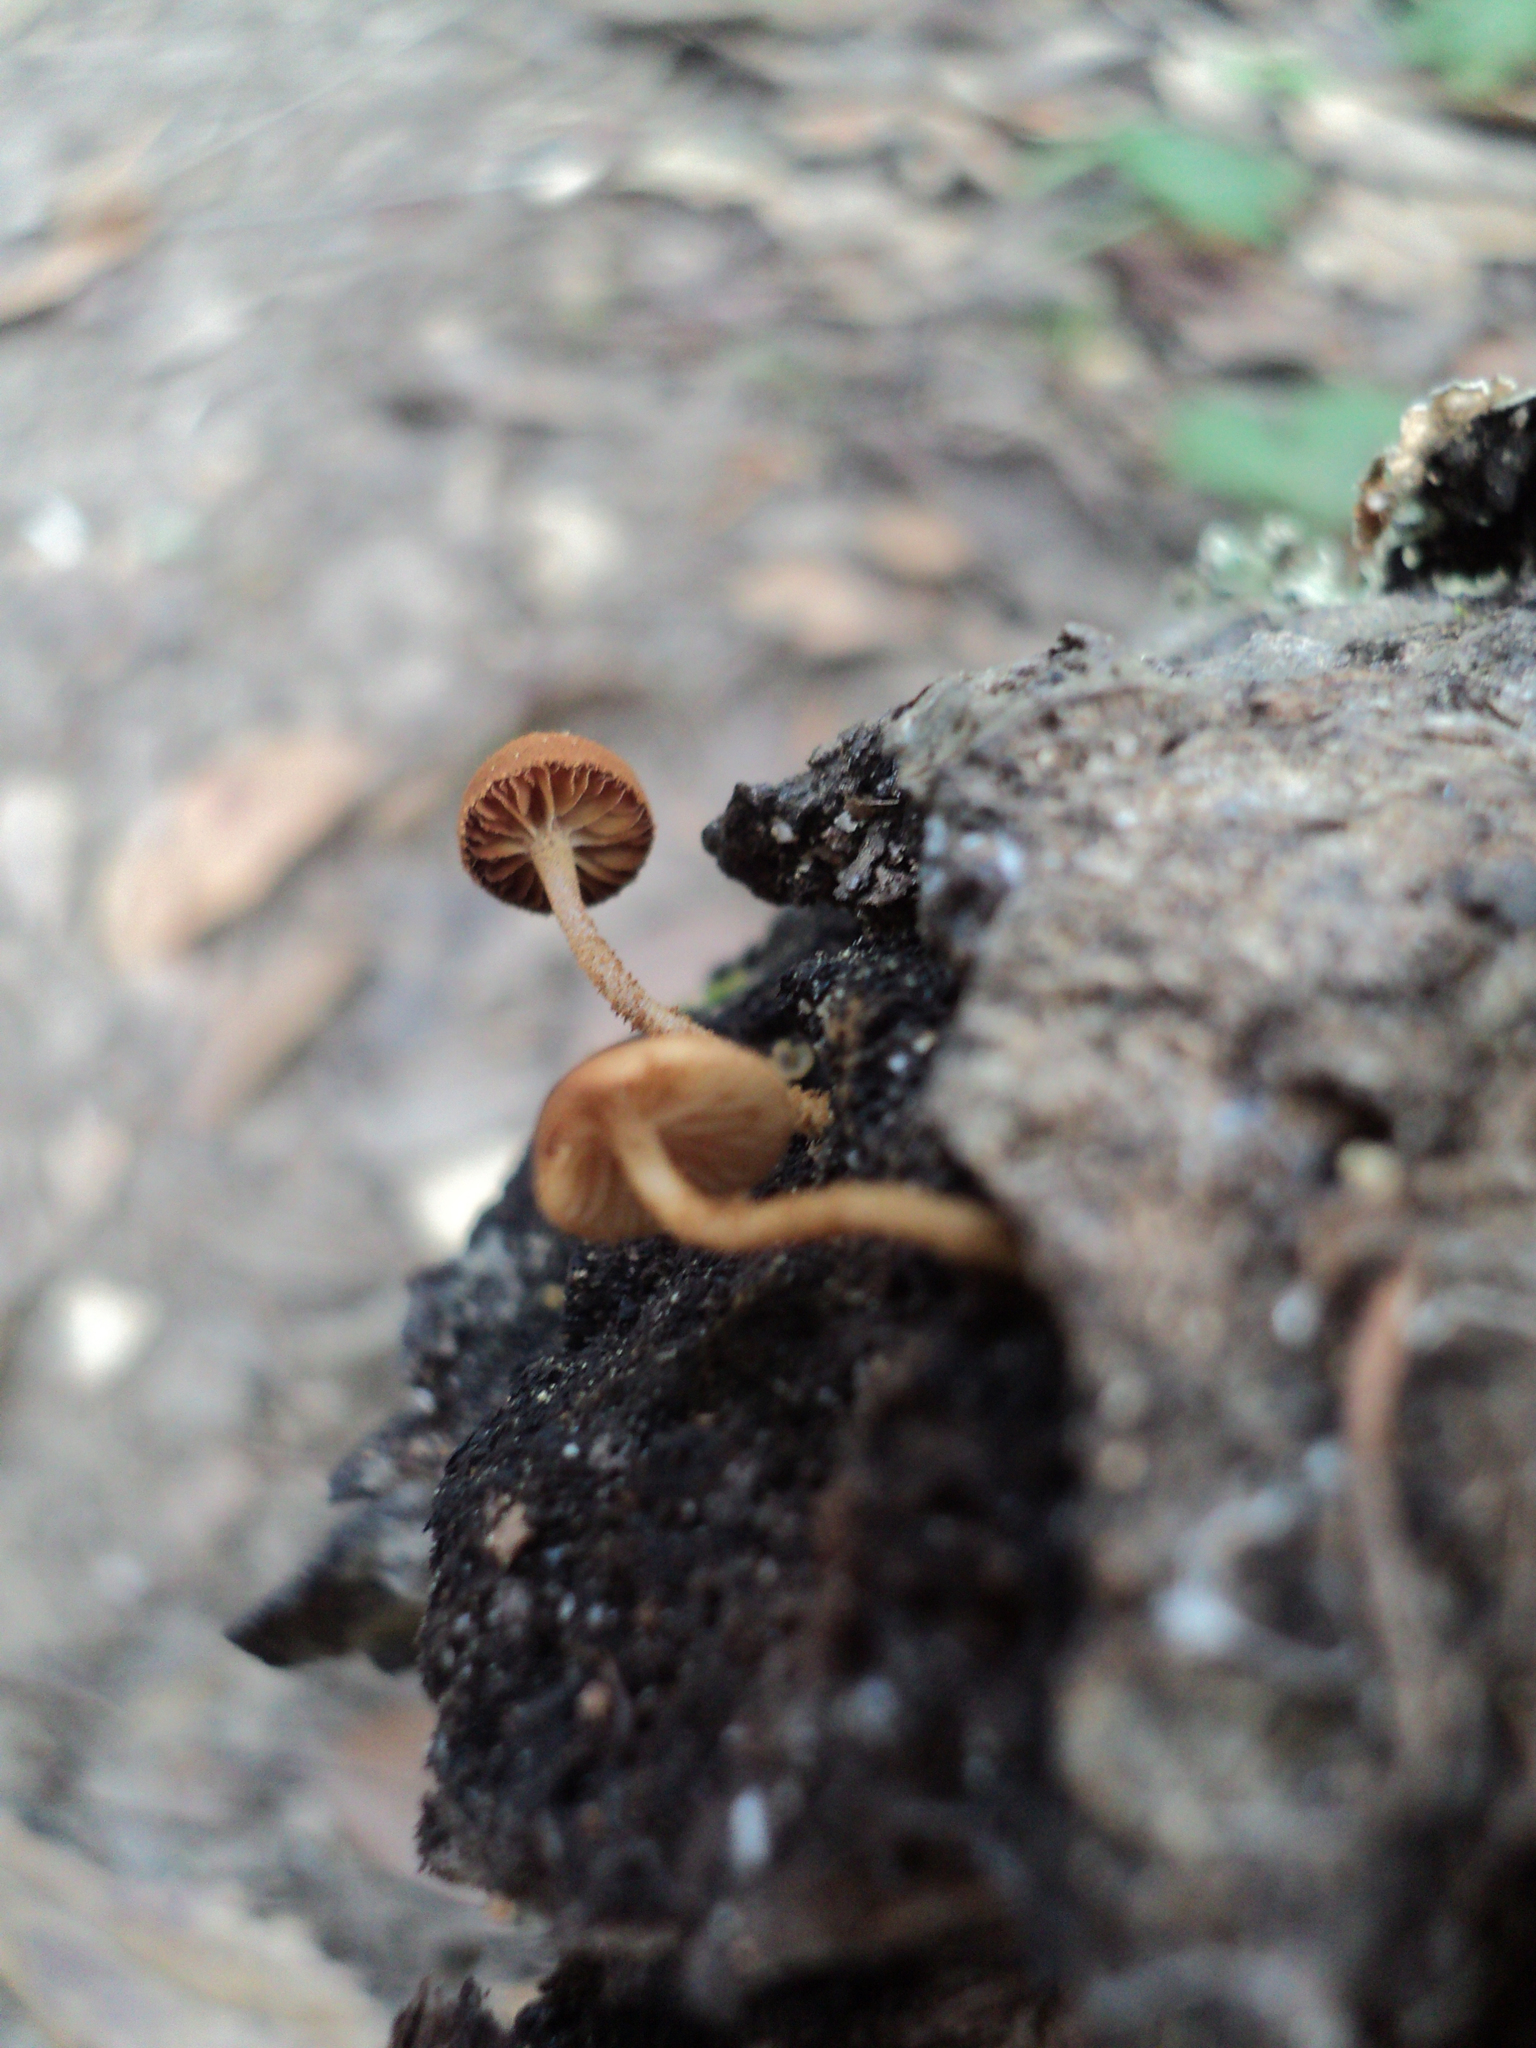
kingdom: Fungi
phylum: Basidiomycota
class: Agaricomycetes
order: Agaricales
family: Tubariaceae
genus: Flammulaster
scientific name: Flammulaster erinaceellus
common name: Powder-scale pholiota
